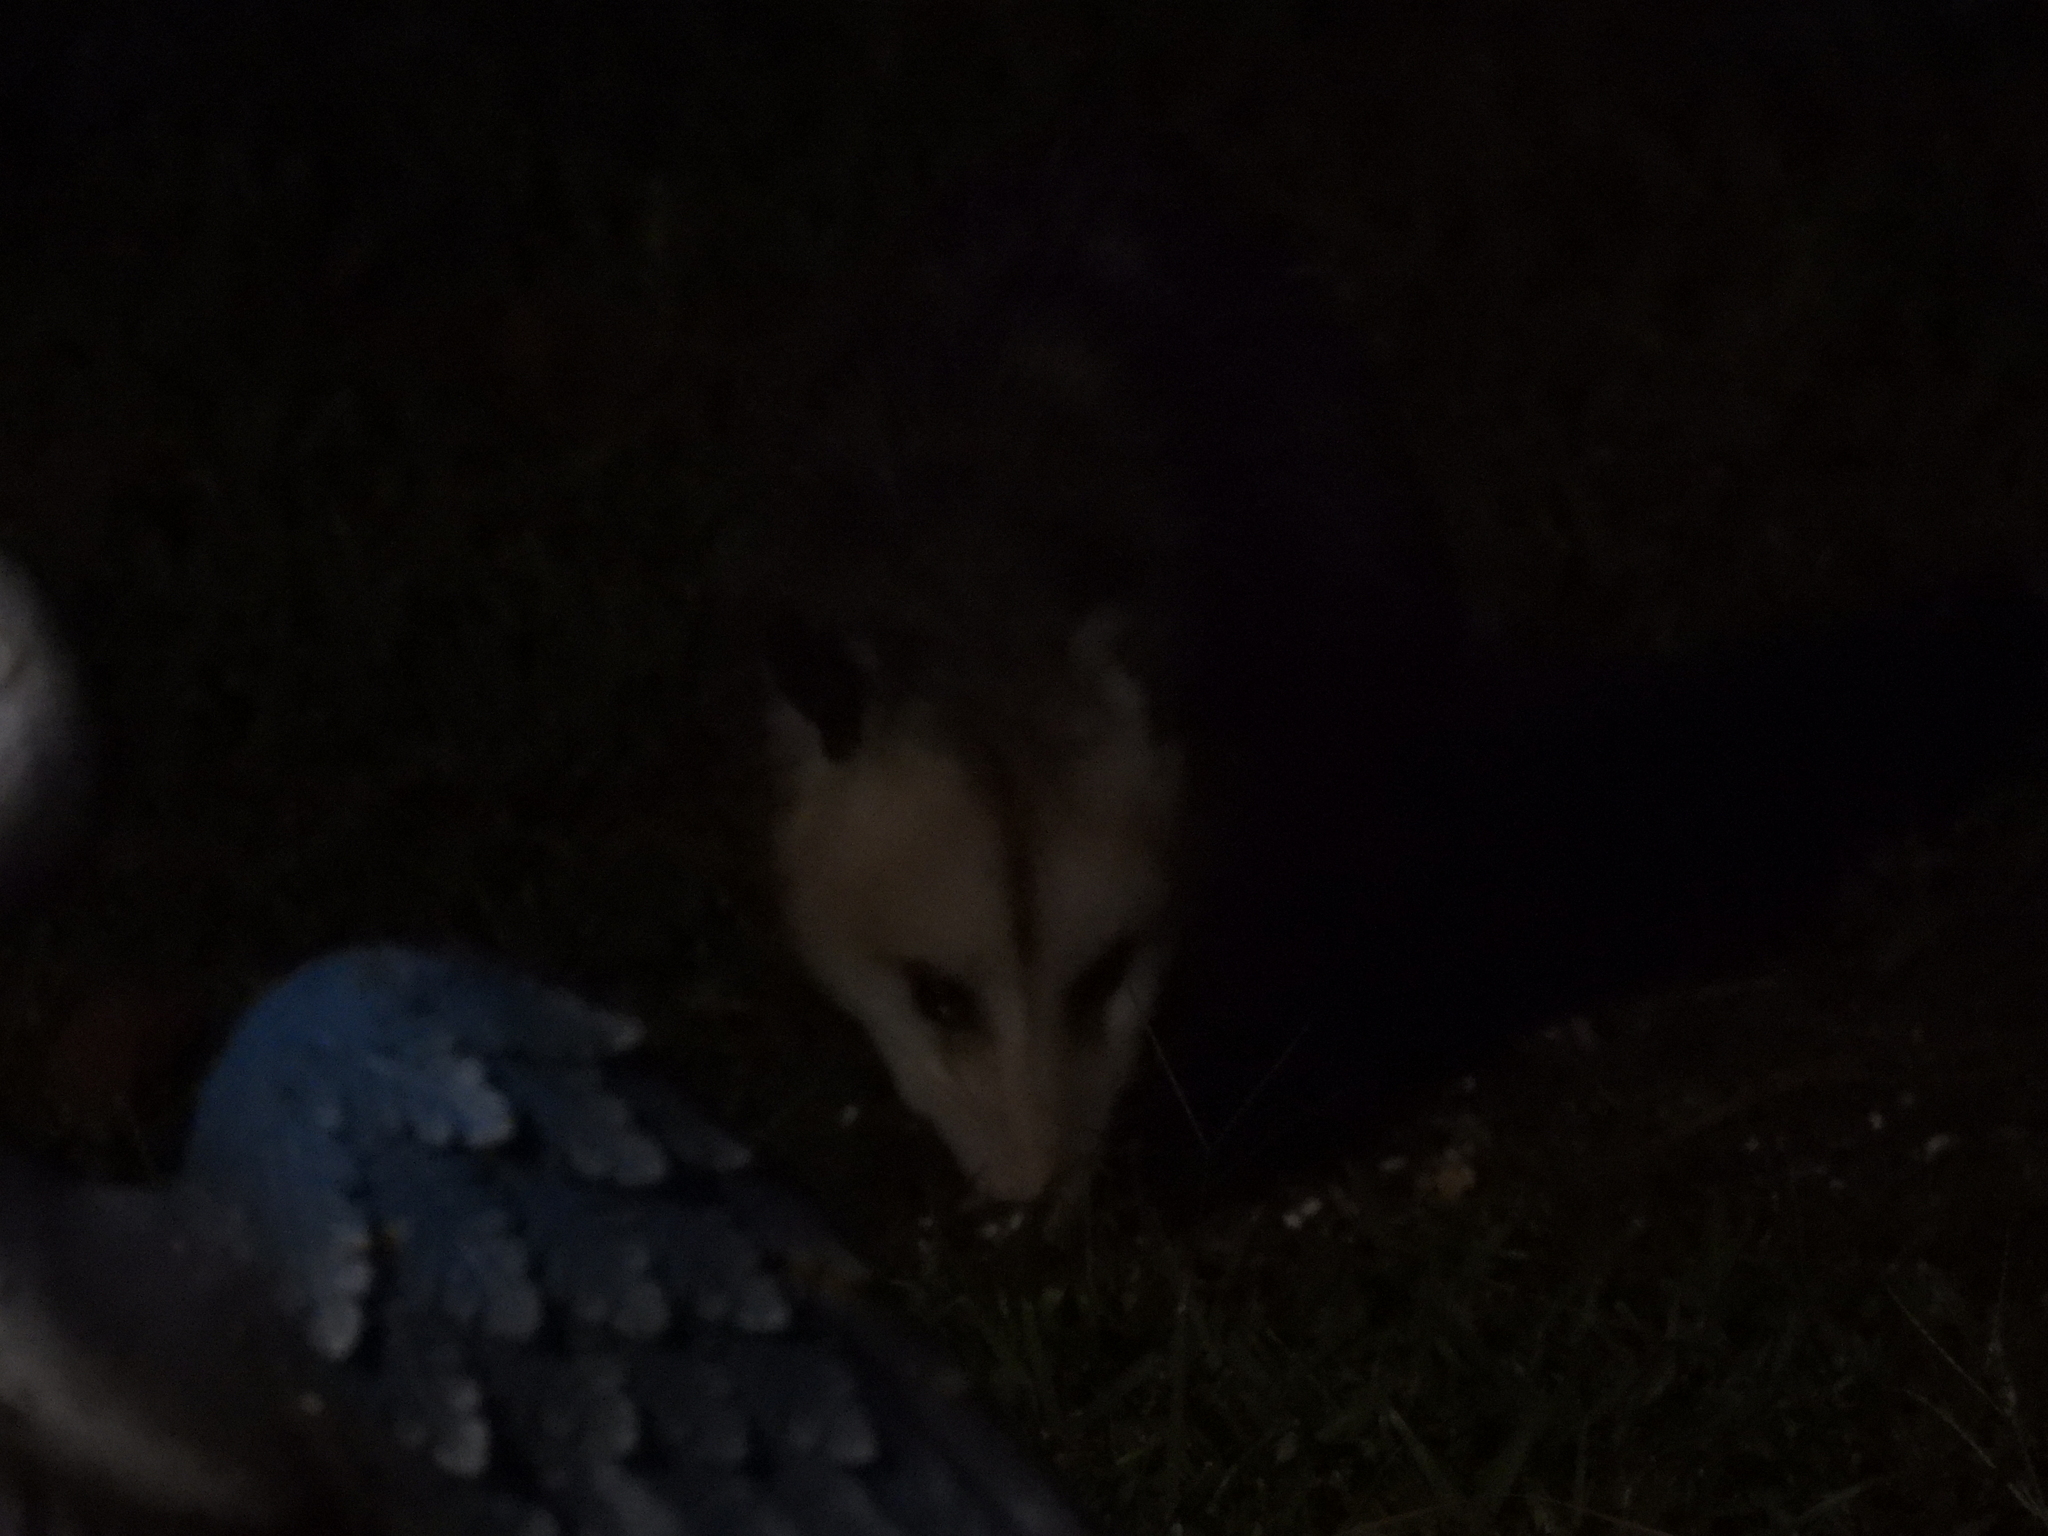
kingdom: Animalia
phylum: Chordata
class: Mammalia
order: Didelphimorphia
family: Didelphidae
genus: Didelphis
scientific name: Didelphis virginiana
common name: Virginia opossum
